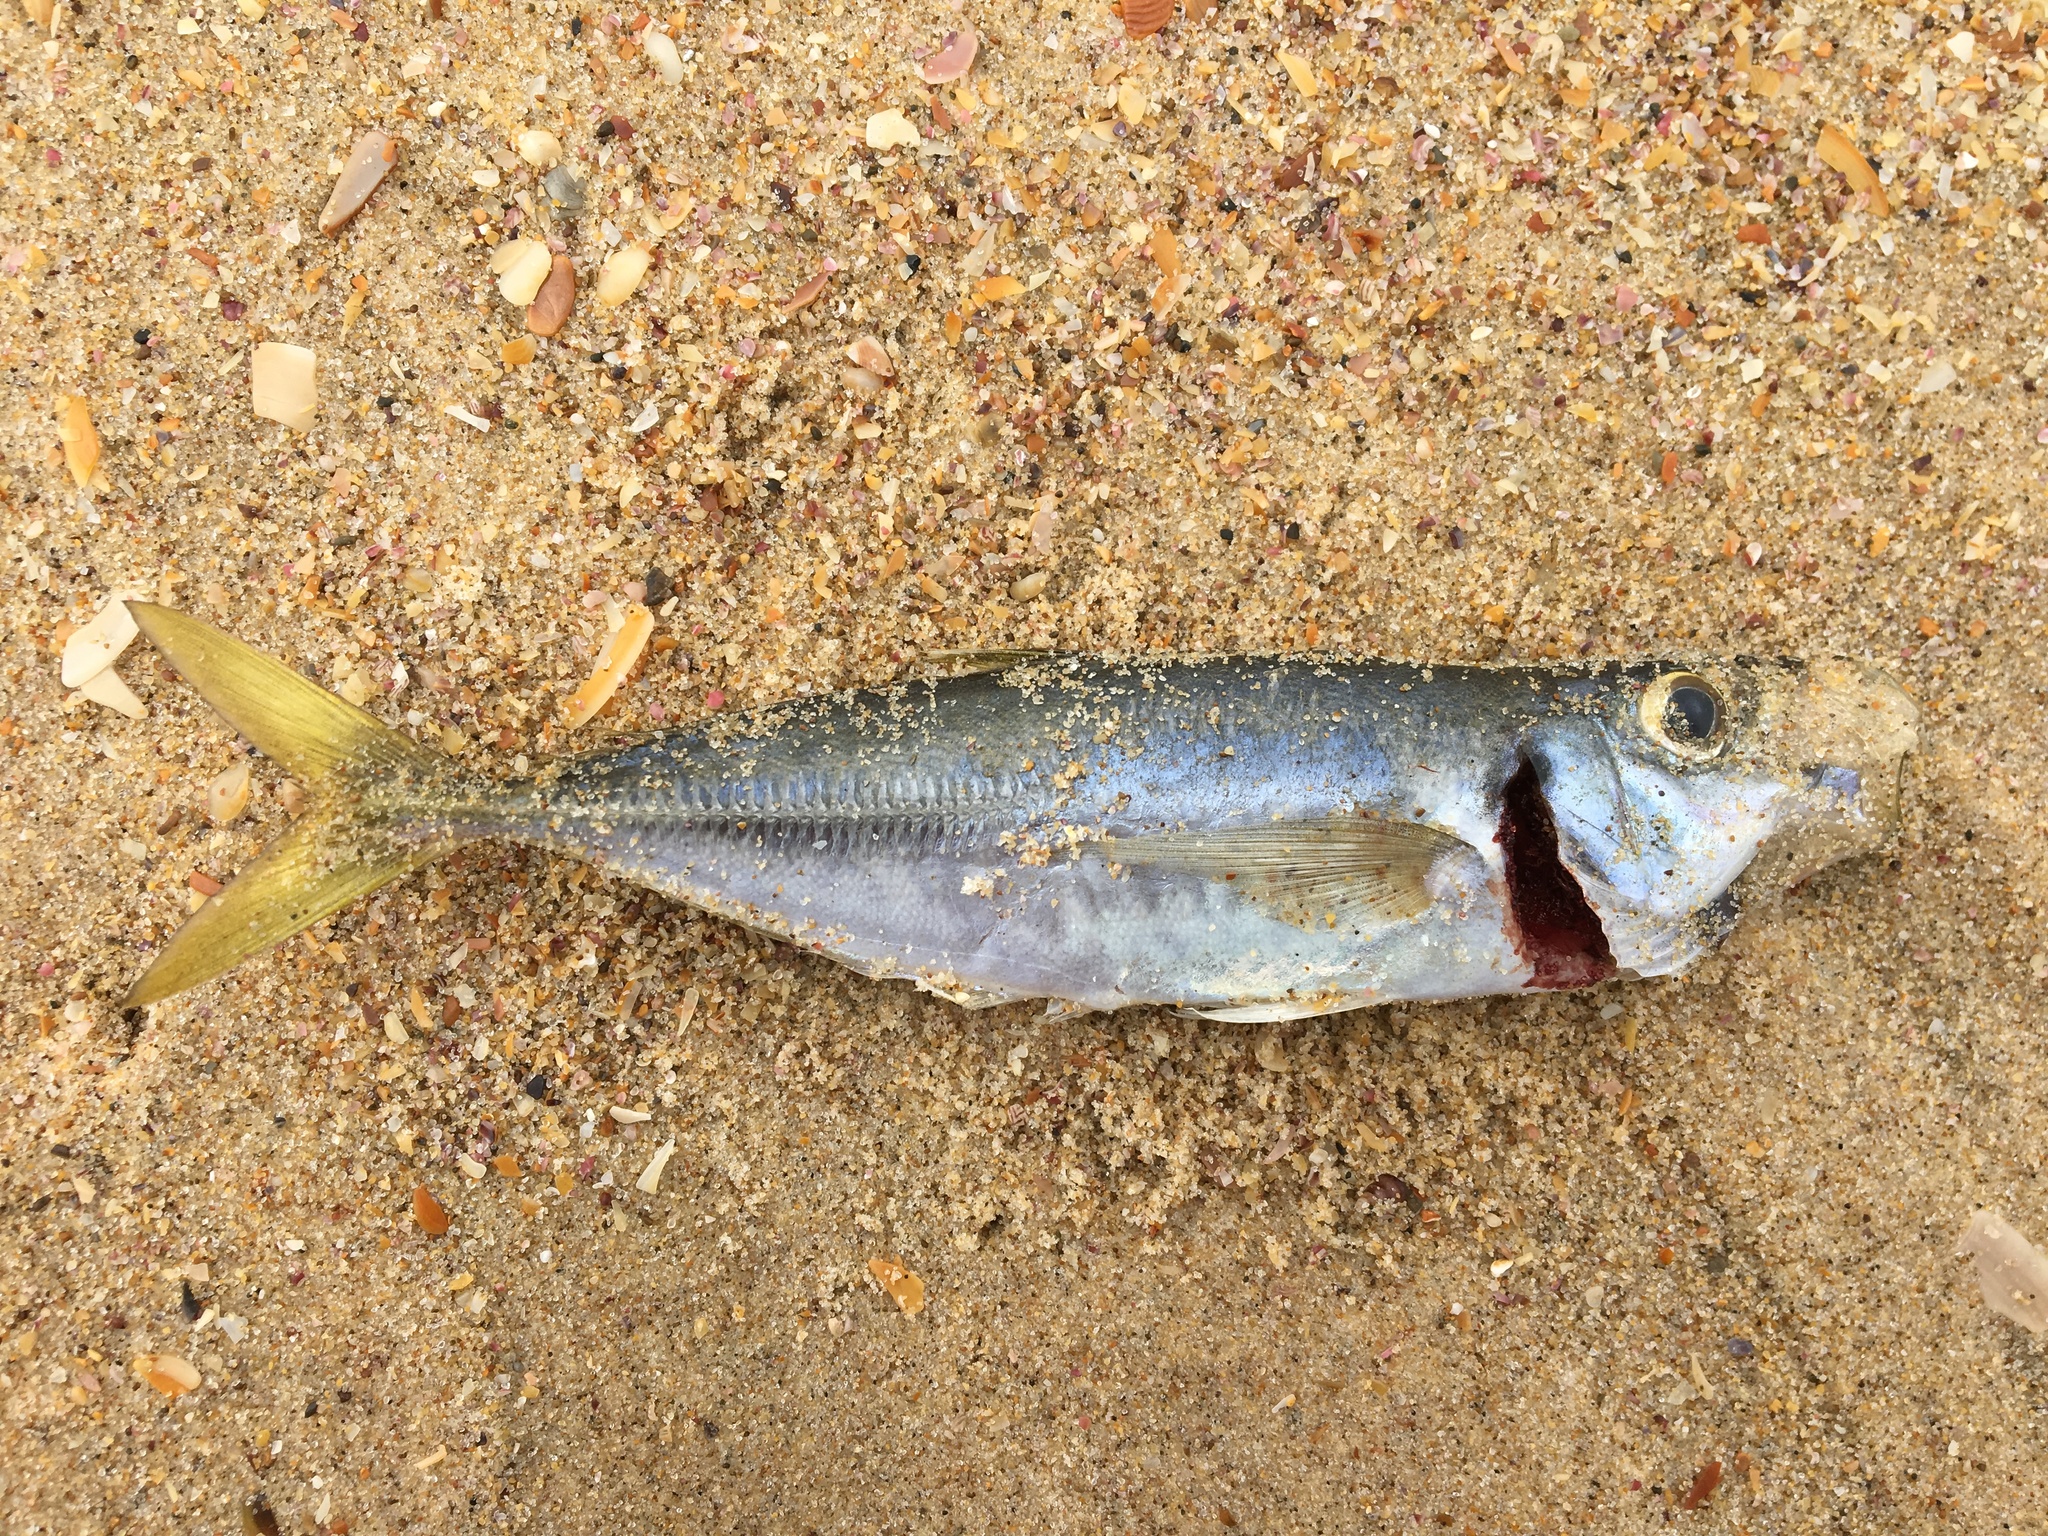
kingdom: Animalia
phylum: Chordata
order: Perciformes
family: Carangidae
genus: Trachurus
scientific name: Trachurus novaezelandiae
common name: Yellowtail horse mackerel
